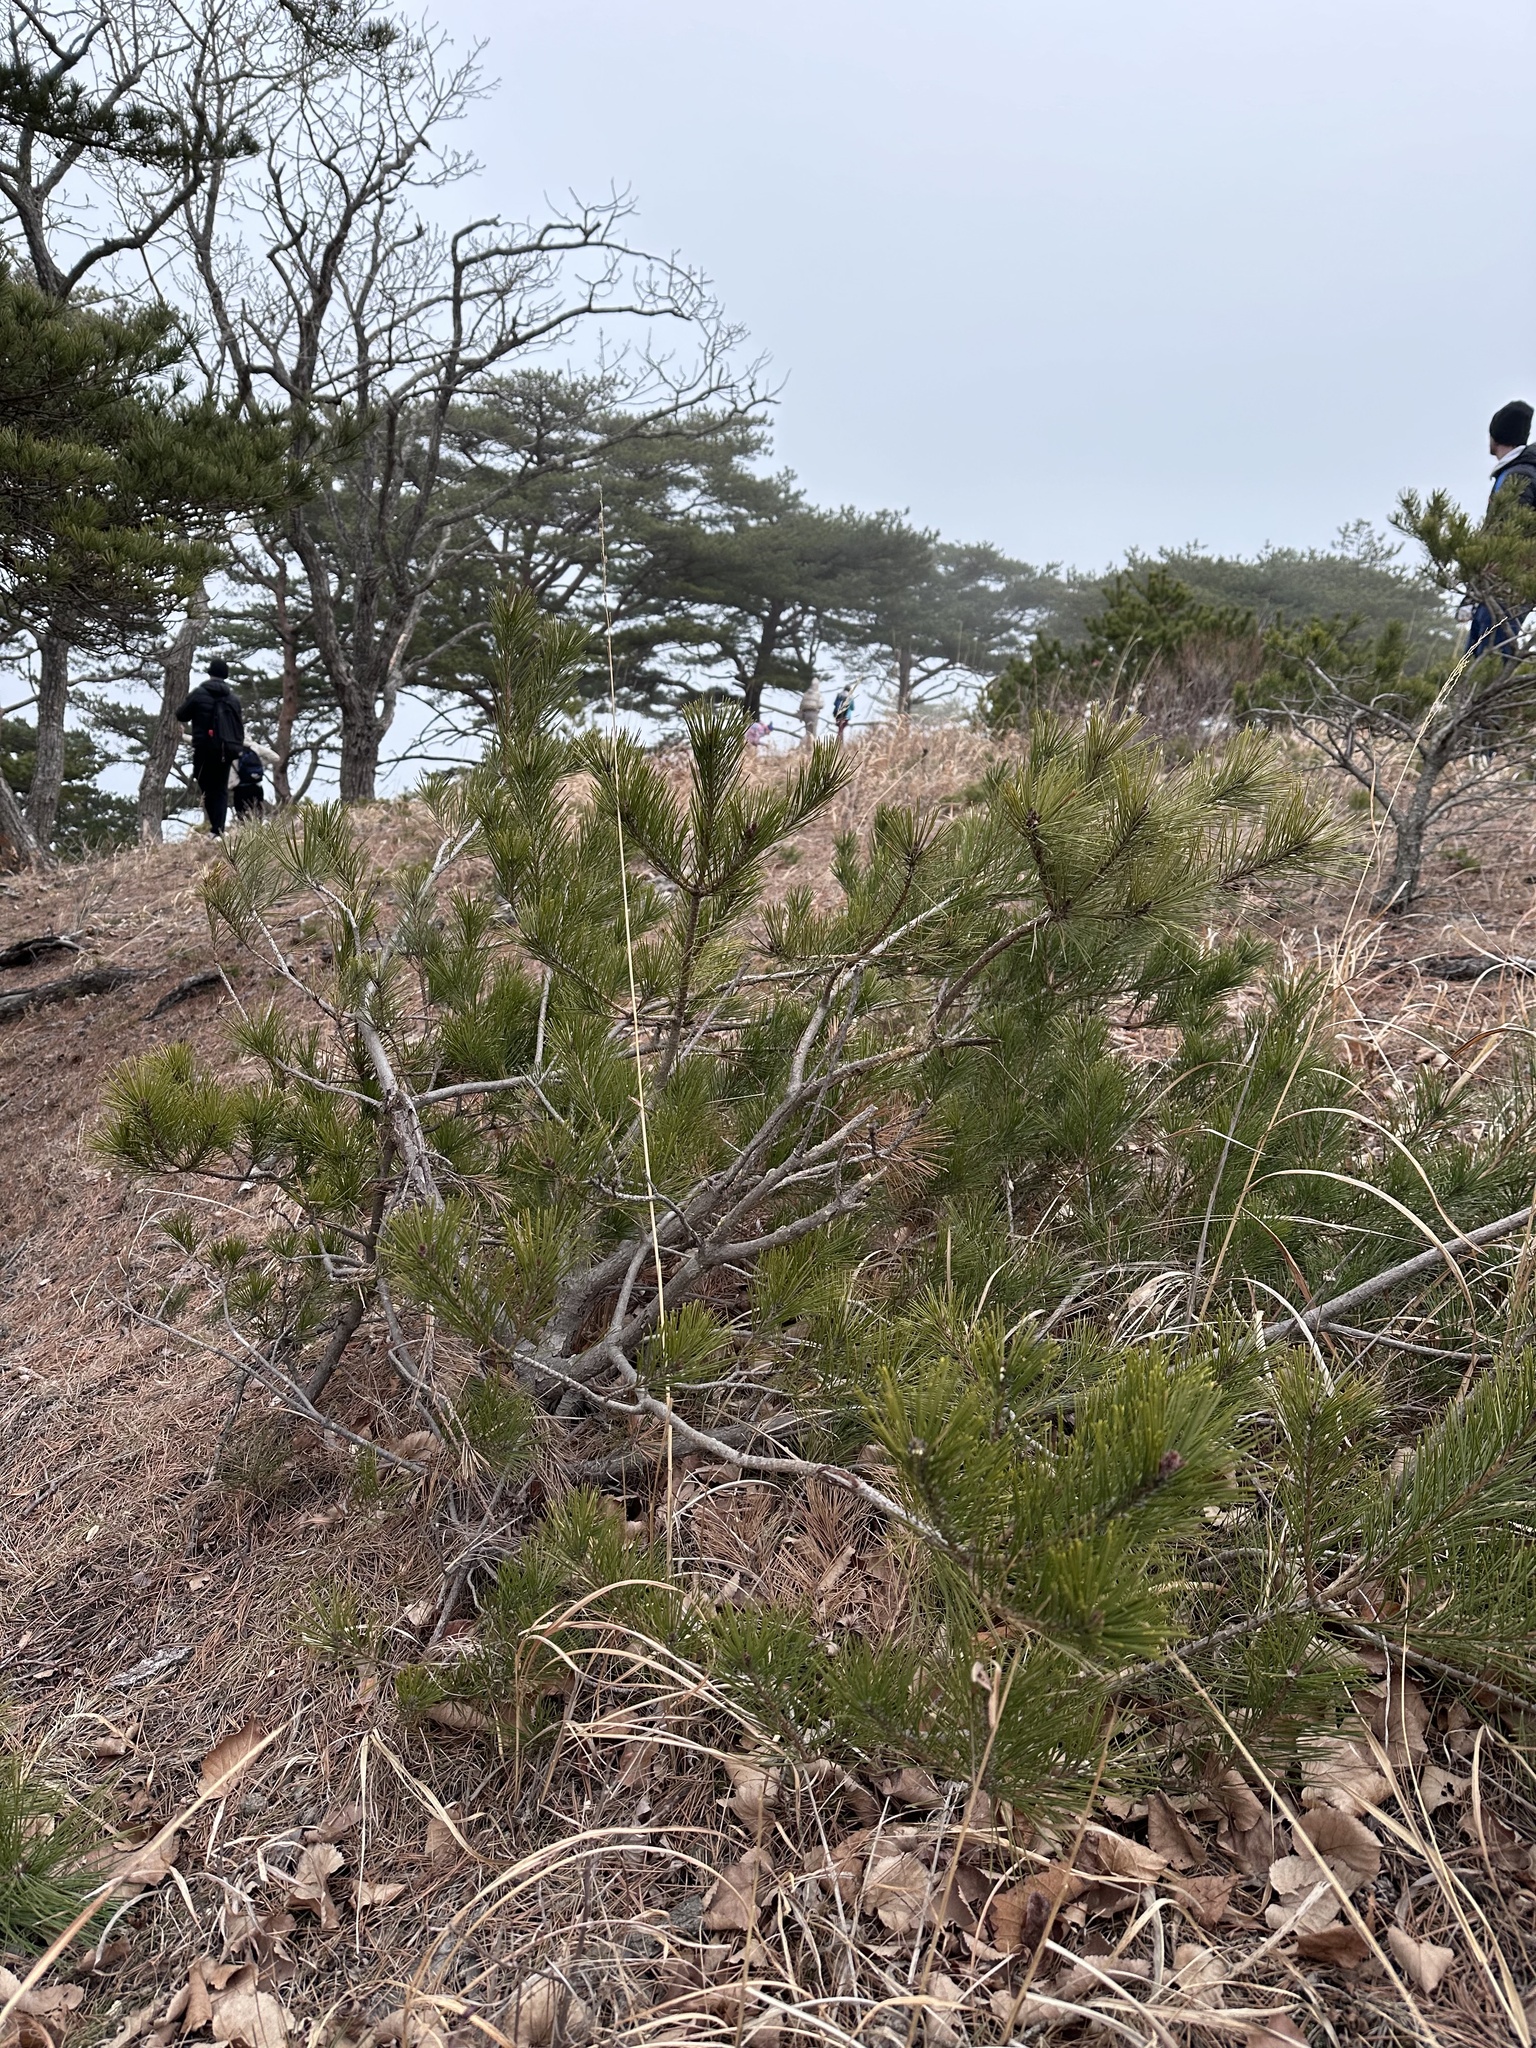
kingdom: Plantae
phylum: Tracheophyta
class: Pinopsida
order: Pinales
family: Pinaceae
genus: Pinus
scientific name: Pinus densiflora
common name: Japanese red pine
